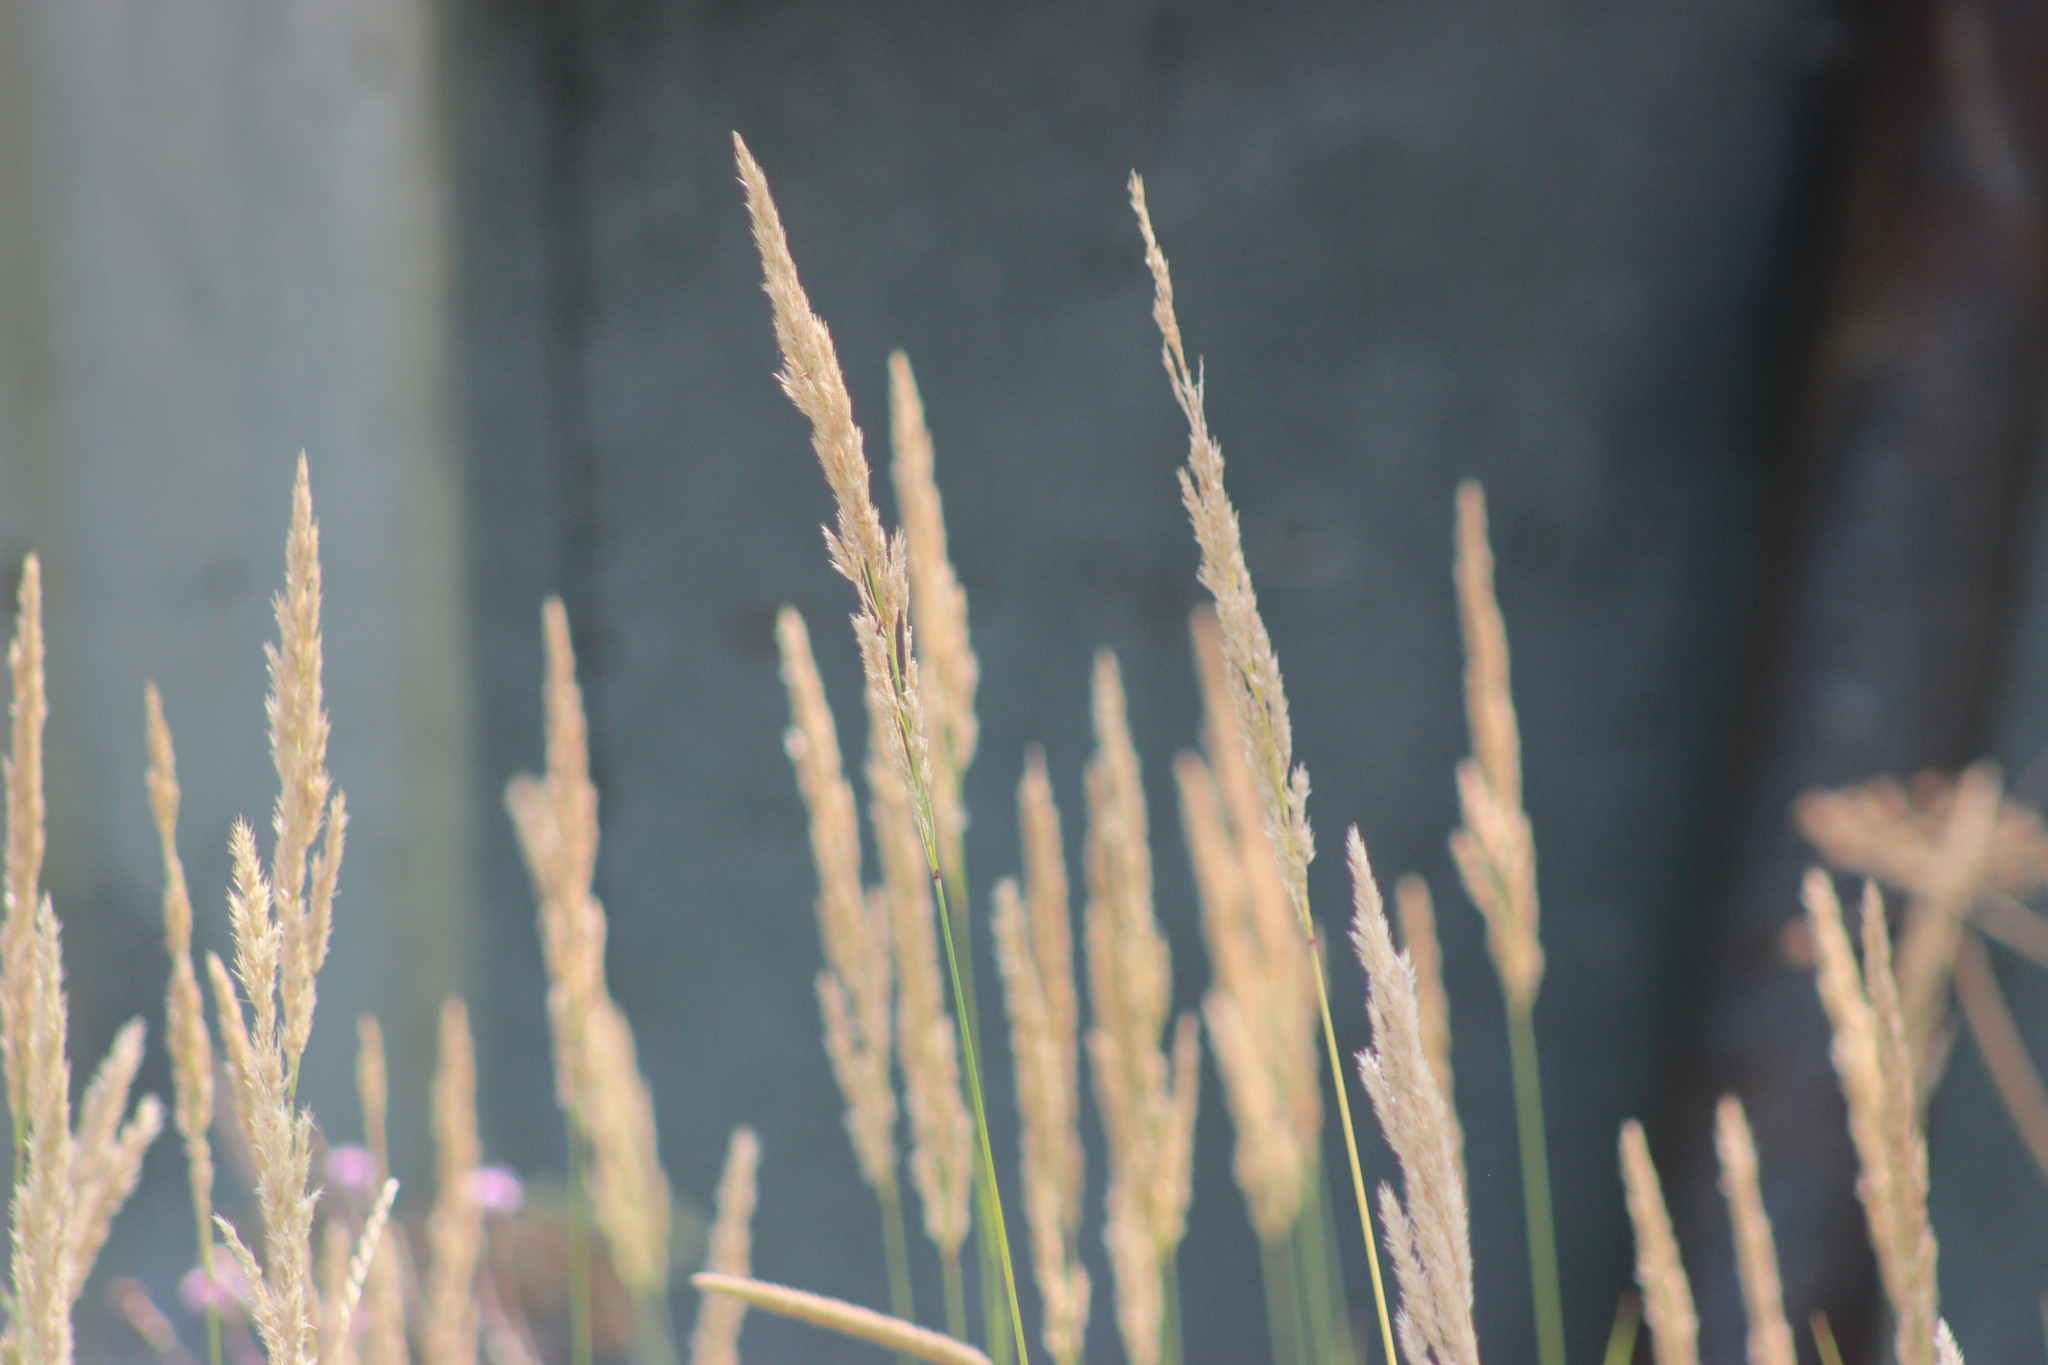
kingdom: Plantae
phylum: Tracheophyta
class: Liliopsida
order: Poales
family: Poaceae
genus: Phalaris
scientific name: Phalaris arundinacea
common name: Reed canary-grass
